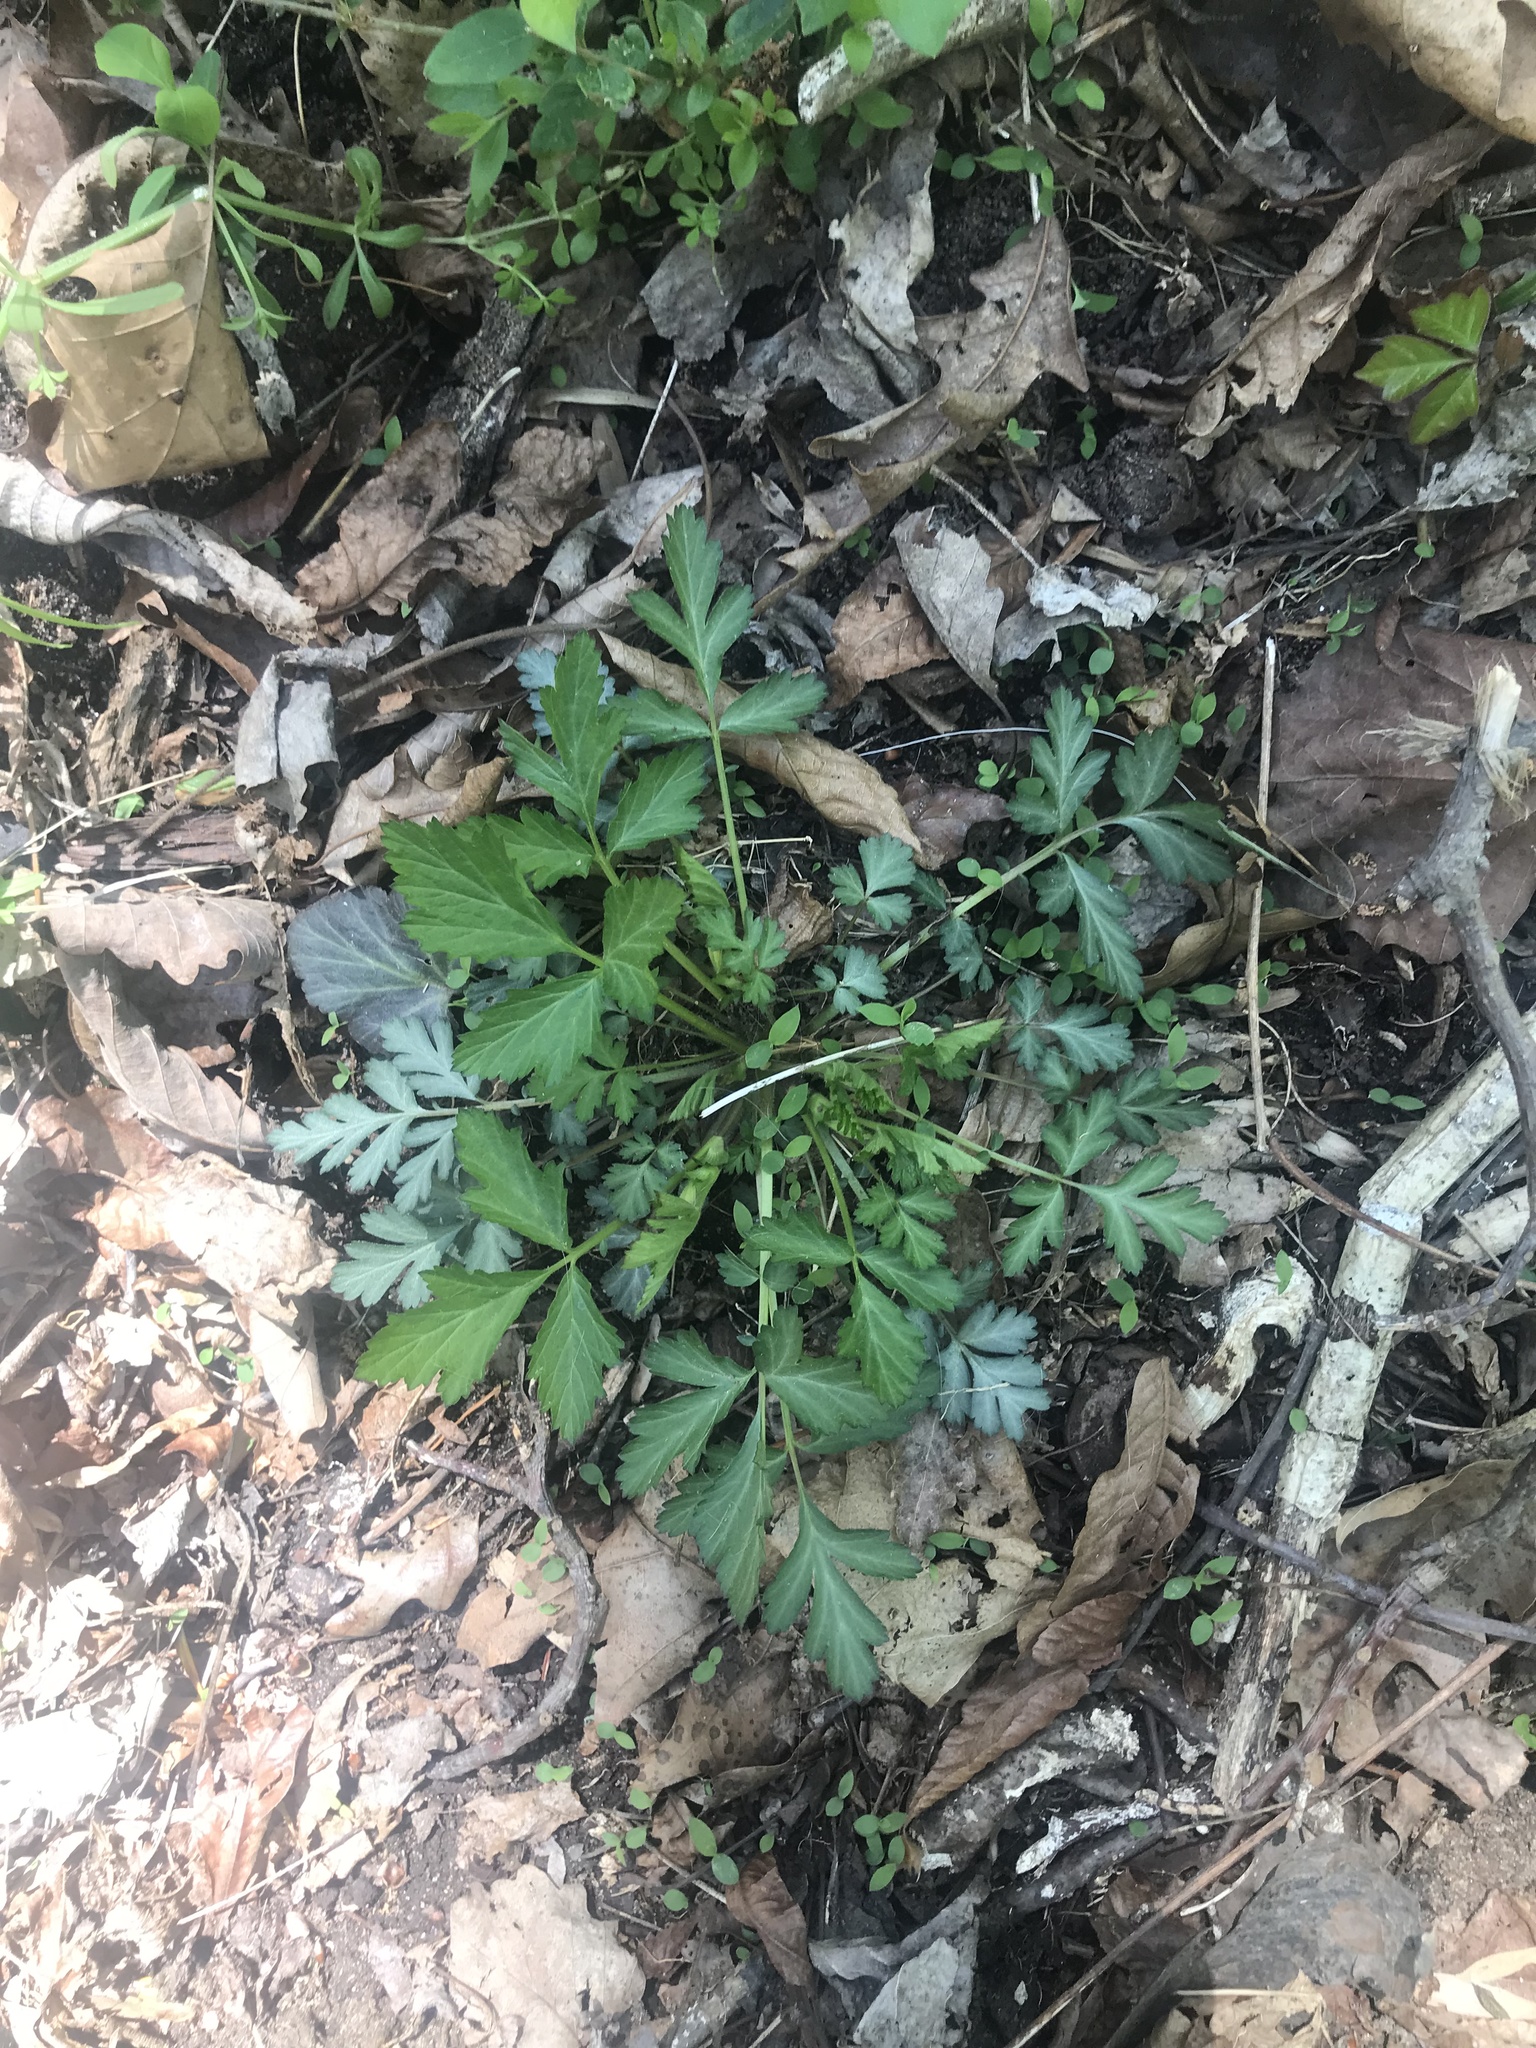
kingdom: Plantae
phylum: Tracheophyta
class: Magnoliopsida
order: Rosales
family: Rosaceae
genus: Geum
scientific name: Geum canadense
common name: White avens
